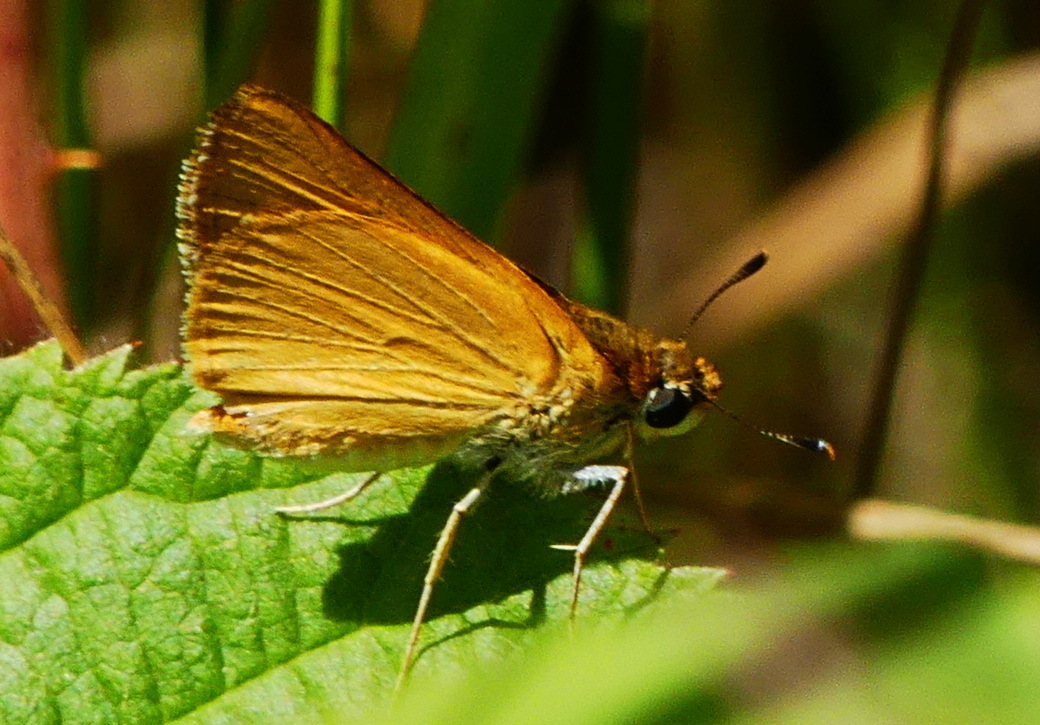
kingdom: Animalia
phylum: Arthropoda
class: Insecta
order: Lepidoptera
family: Hesperiidae
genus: Atrytone
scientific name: Atrytone delaware
